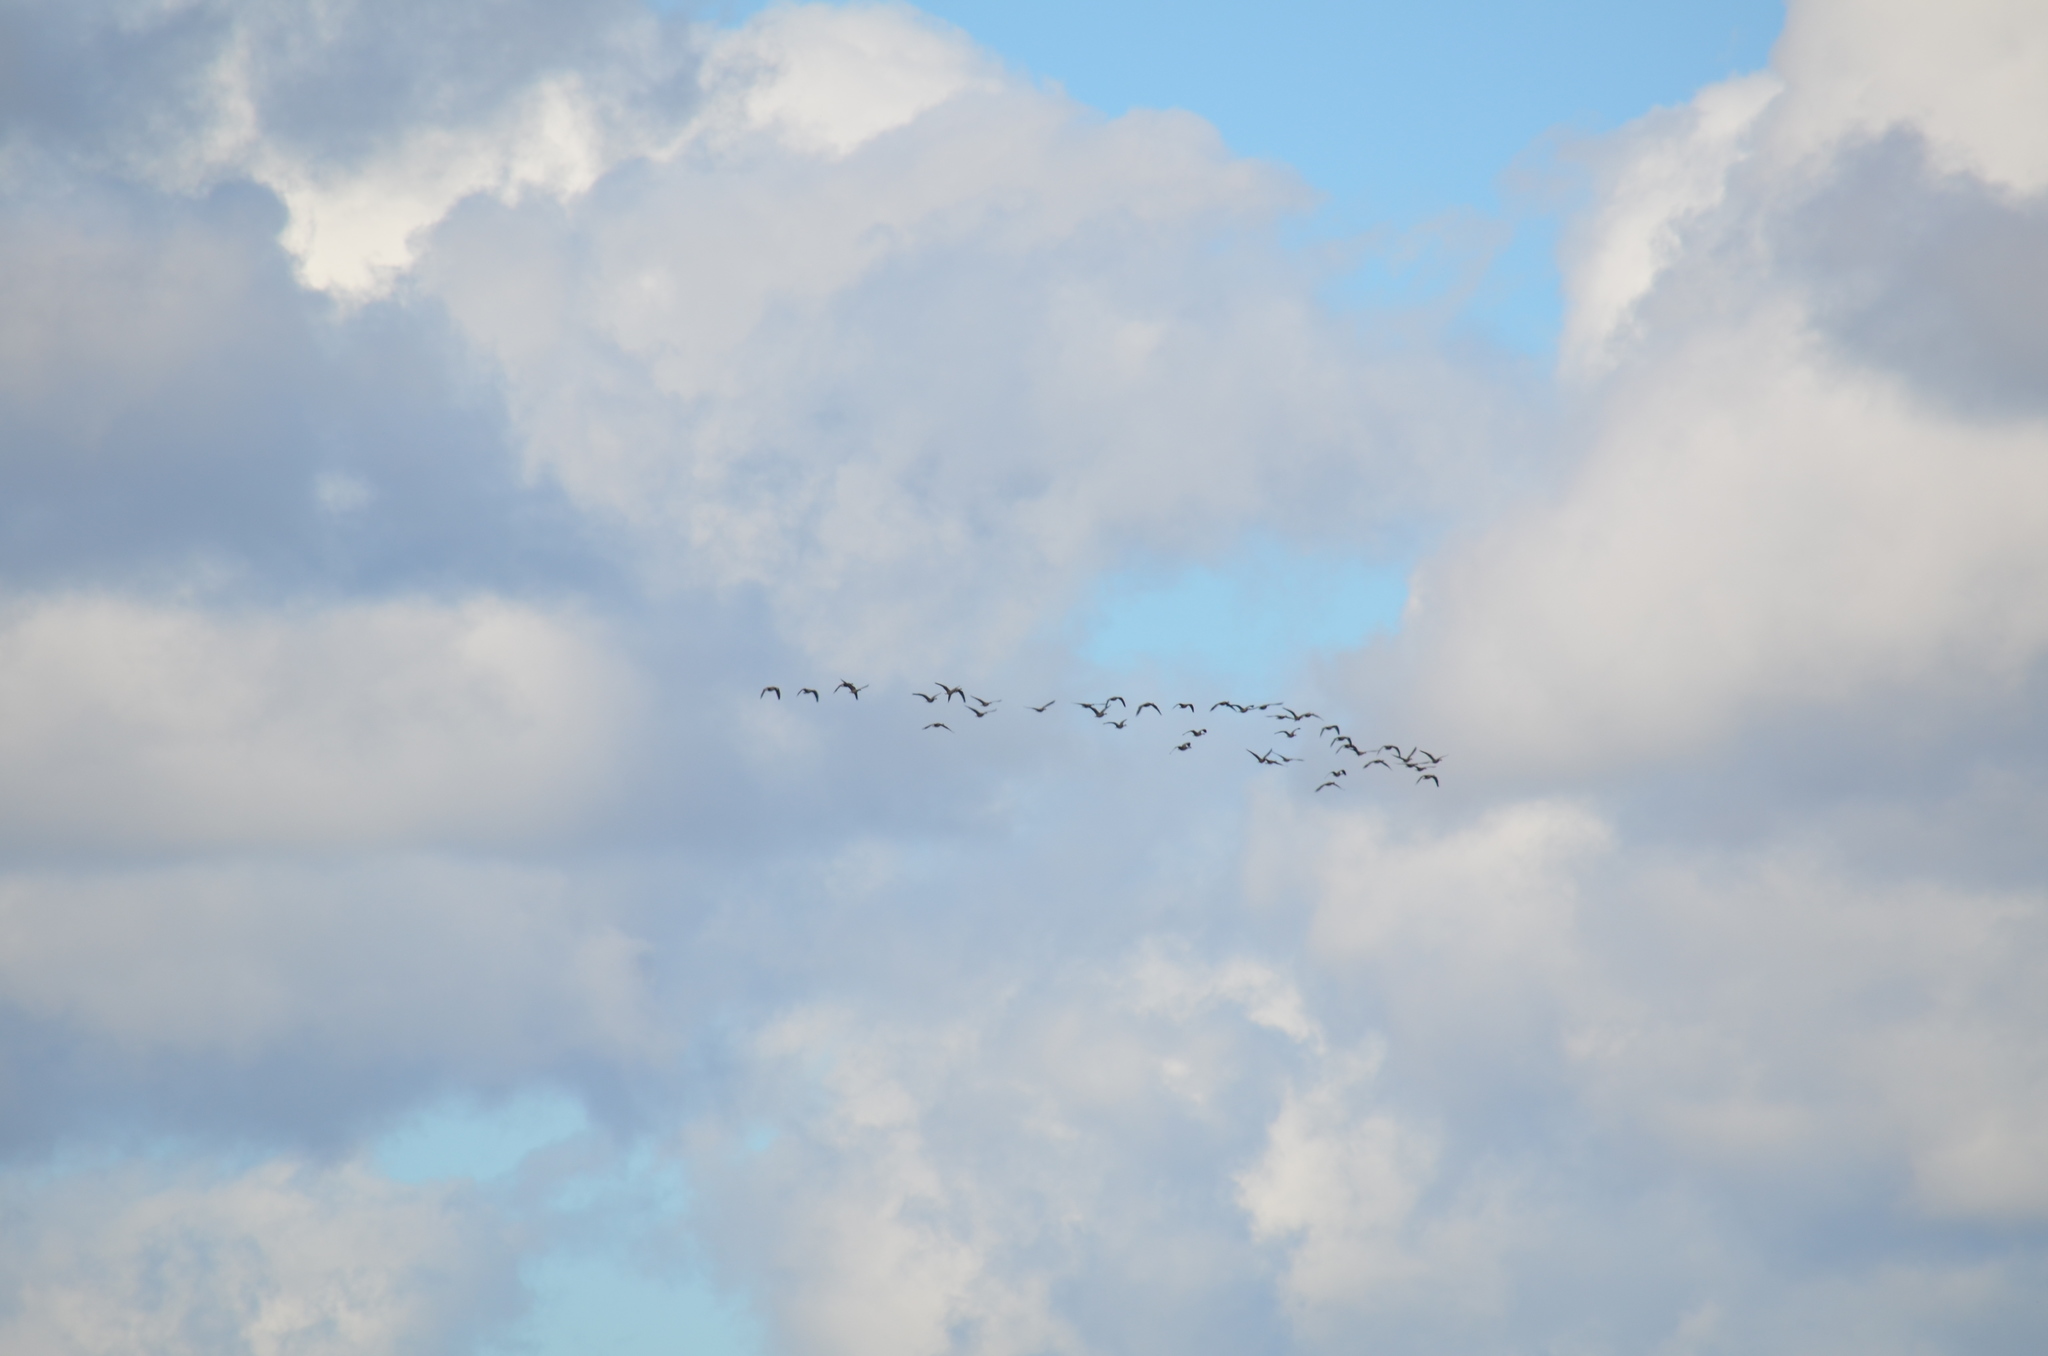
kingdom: Animalia
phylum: Chordata
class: Aves
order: Anseriformes
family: Anatidae
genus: Branta
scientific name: Branta hutchinsii
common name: Cackling goose
